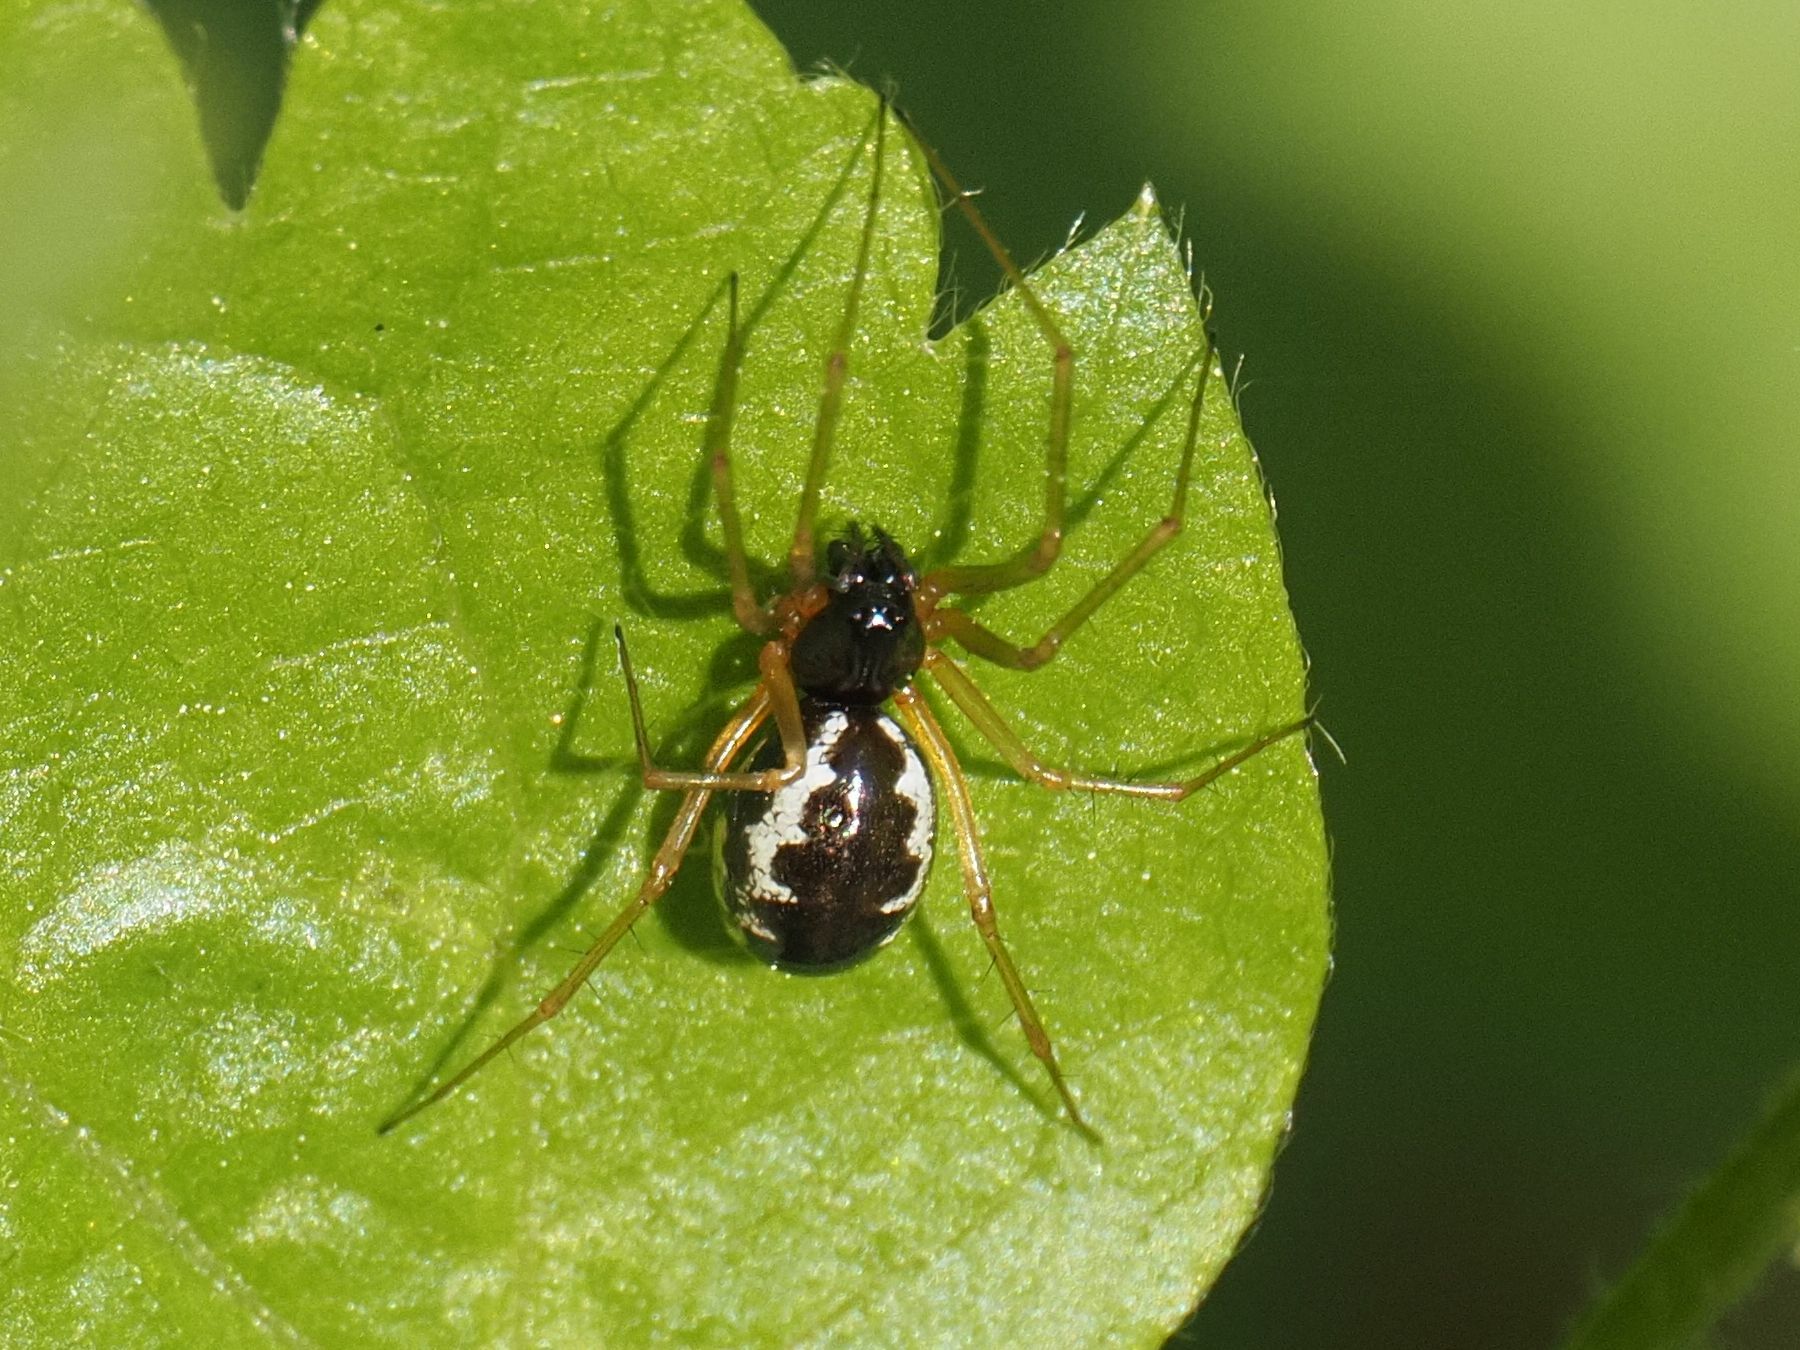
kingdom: Animalia
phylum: Arthropoda
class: Arachnida
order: Araneae
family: Linyphiidae
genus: Linyphia
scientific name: Linyphia hortensis
